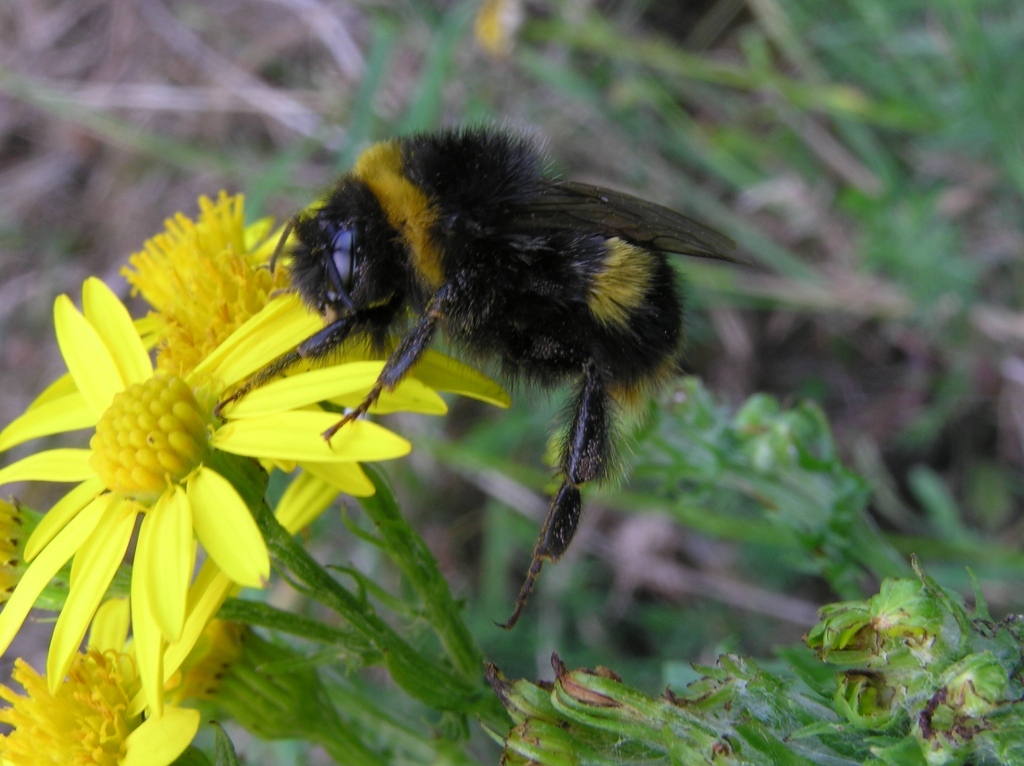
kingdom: Animalia
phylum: Arthropoda
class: Insecta
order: Hymenoptera
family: Apidae
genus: Bombus
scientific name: Bombus terrestris
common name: Buff-tailed bumblebee
